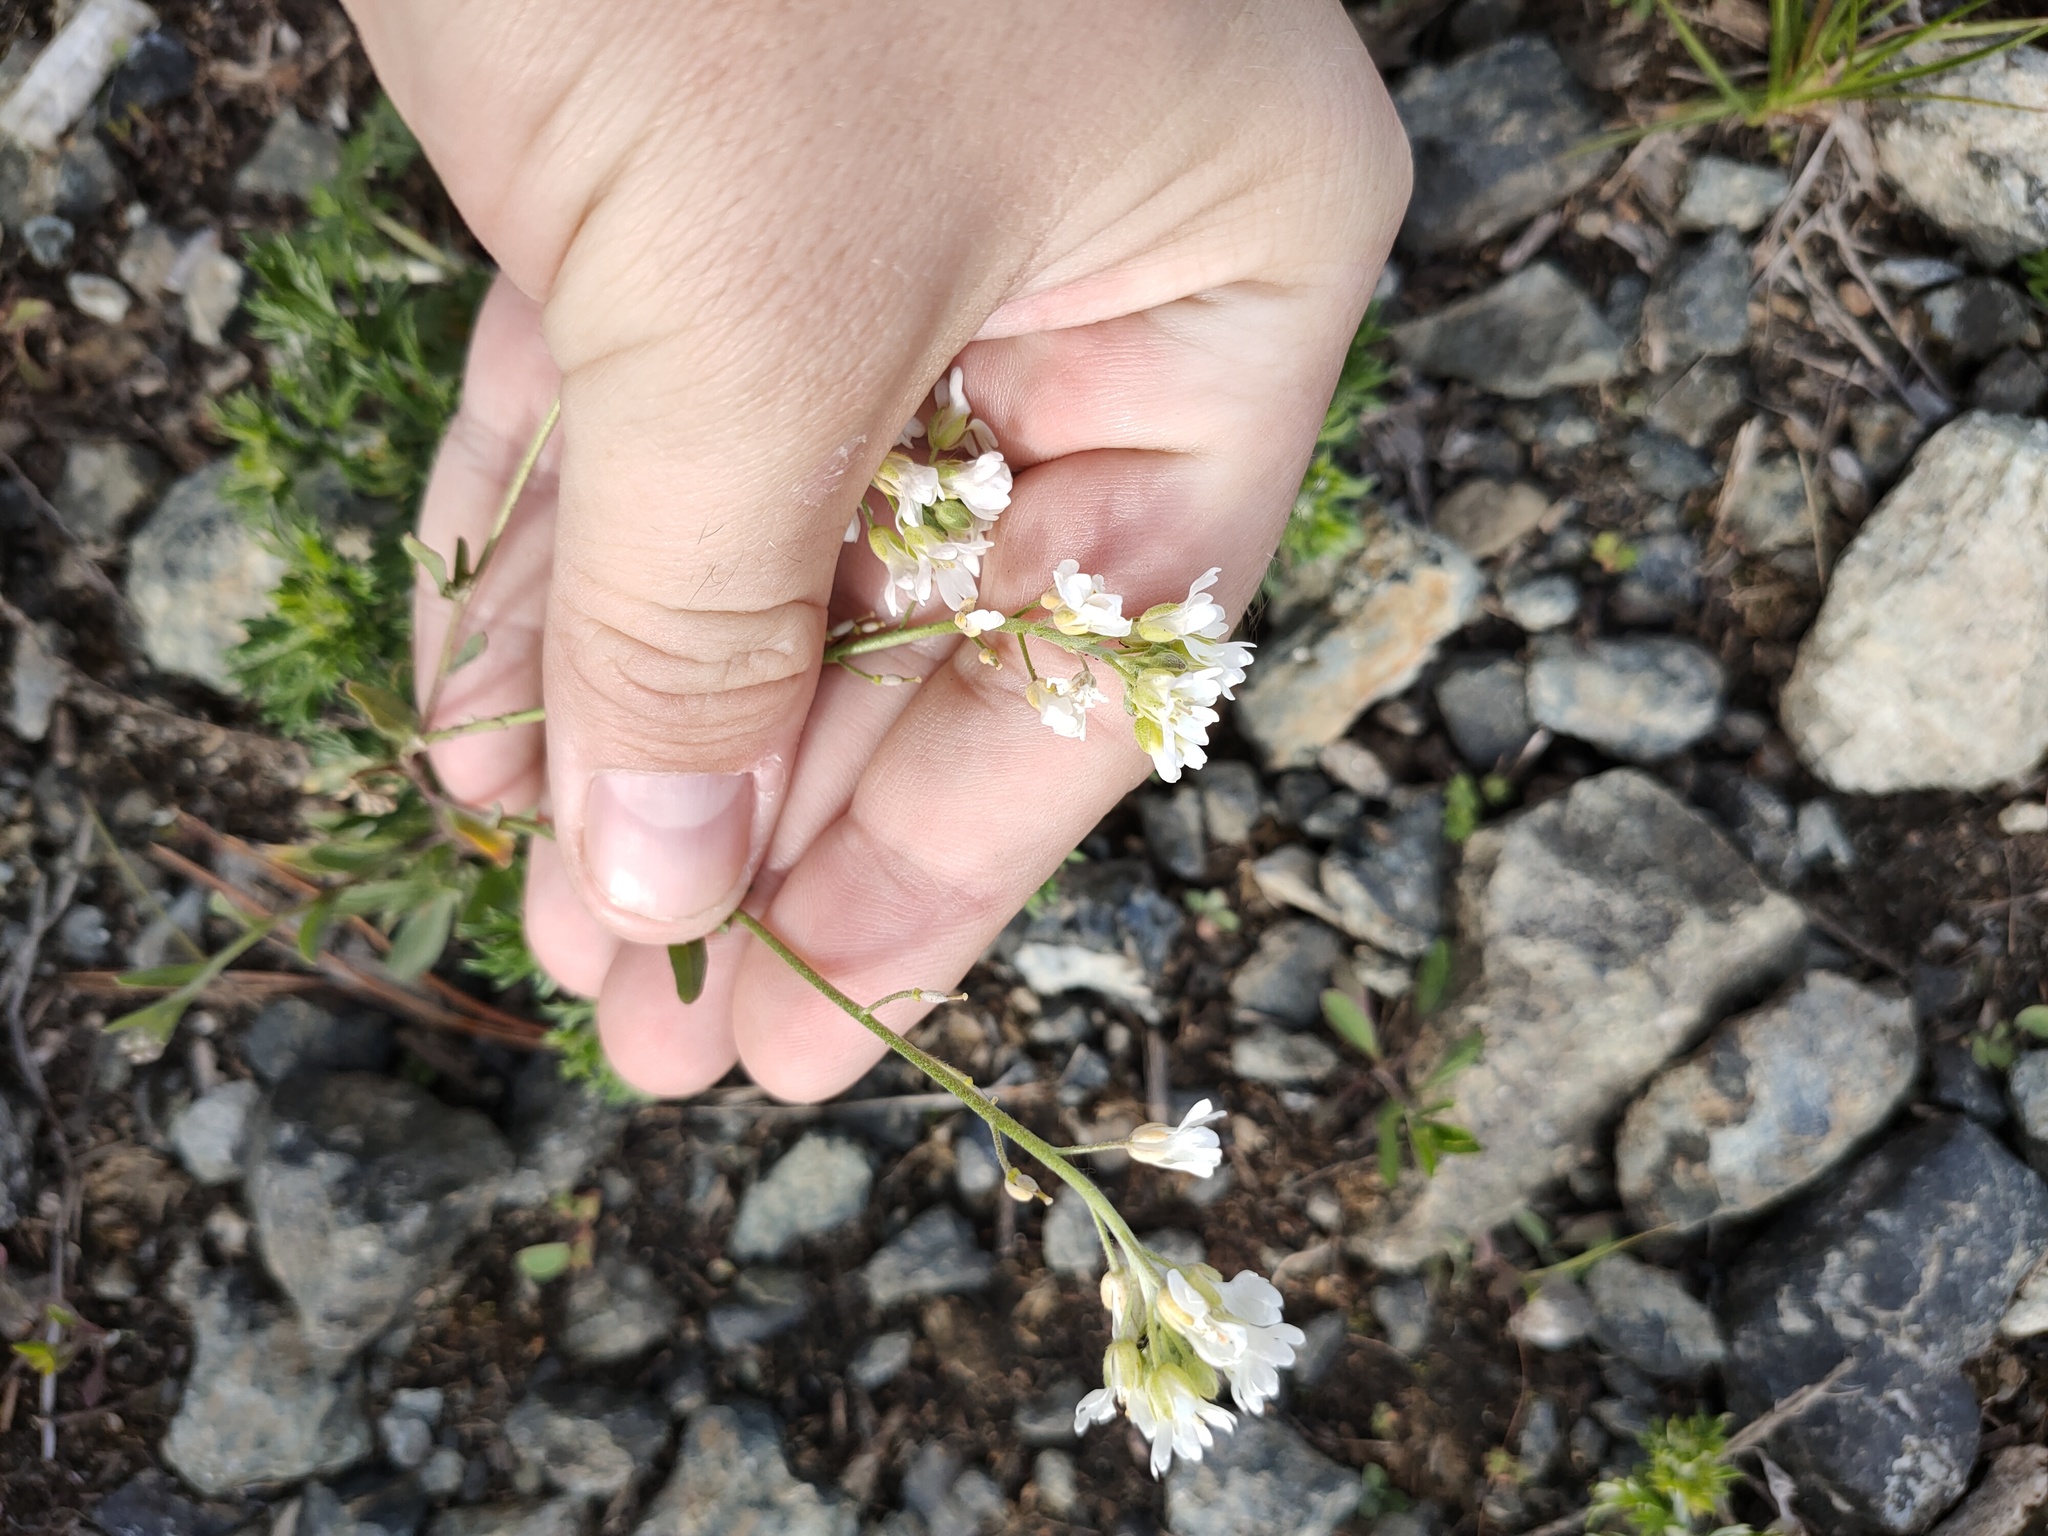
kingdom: Plantae
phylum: Tracheophyta
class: Magnoliopsida
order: Brassicales
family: Brassicaceae
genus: Berteroa
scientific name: Berteroa incana
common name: Hoary alison
